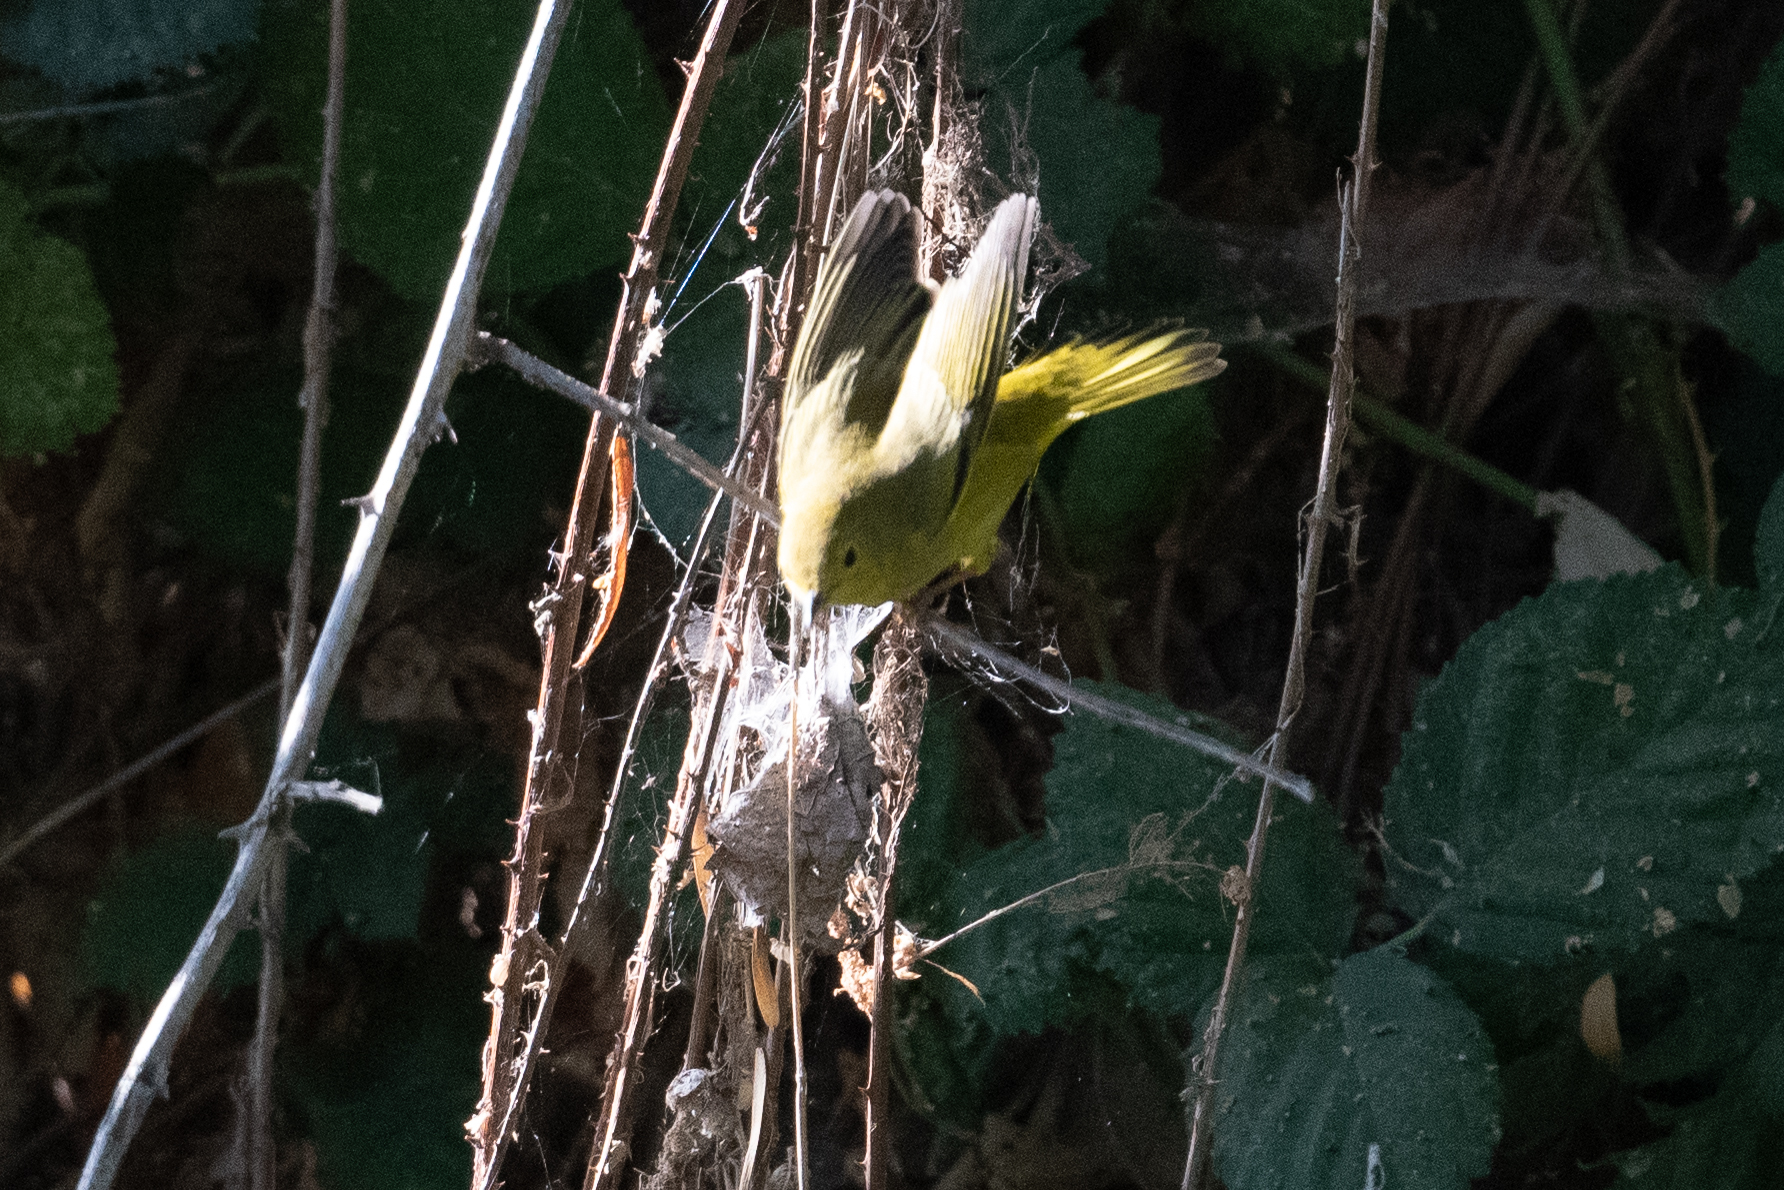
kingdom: Animalia
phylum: Chordata
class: Aves
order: Passeriformes
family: Parulidae
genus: Setophaga
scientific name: Setophaga petechia
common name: Yellow warbler
